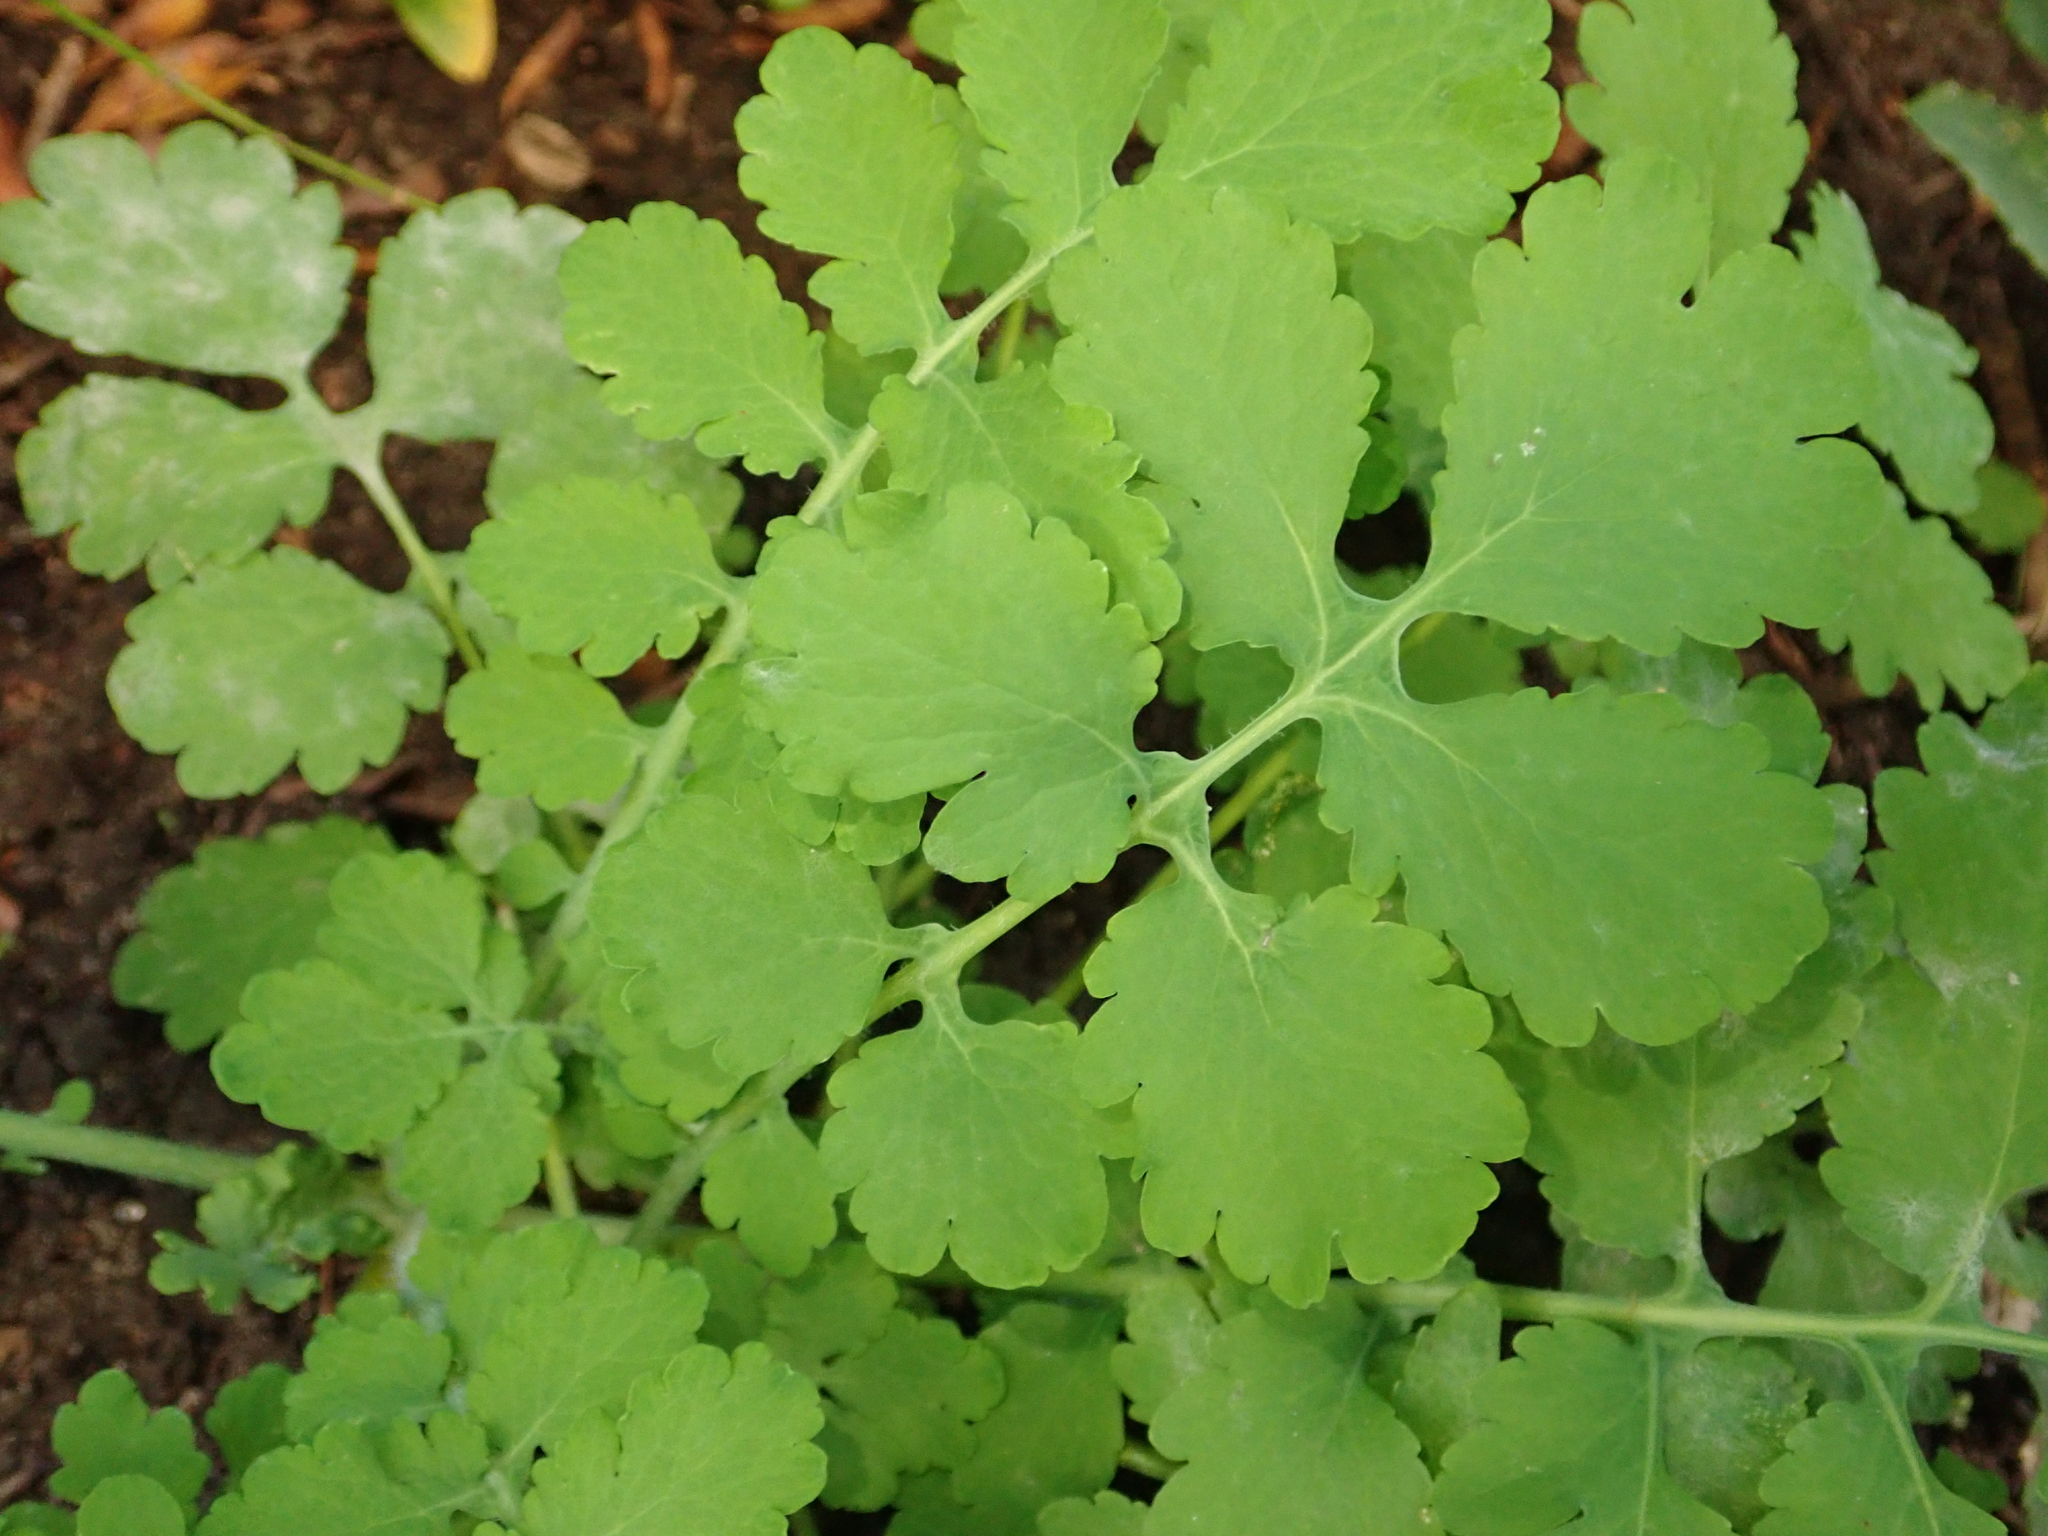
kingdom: Plantae
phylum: Tracheophyta
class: Magnoliopsida
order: Ranunculales
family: Papaveraceae
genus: Chelidonium
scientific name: Chelidonium majus
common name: Greater celandine
